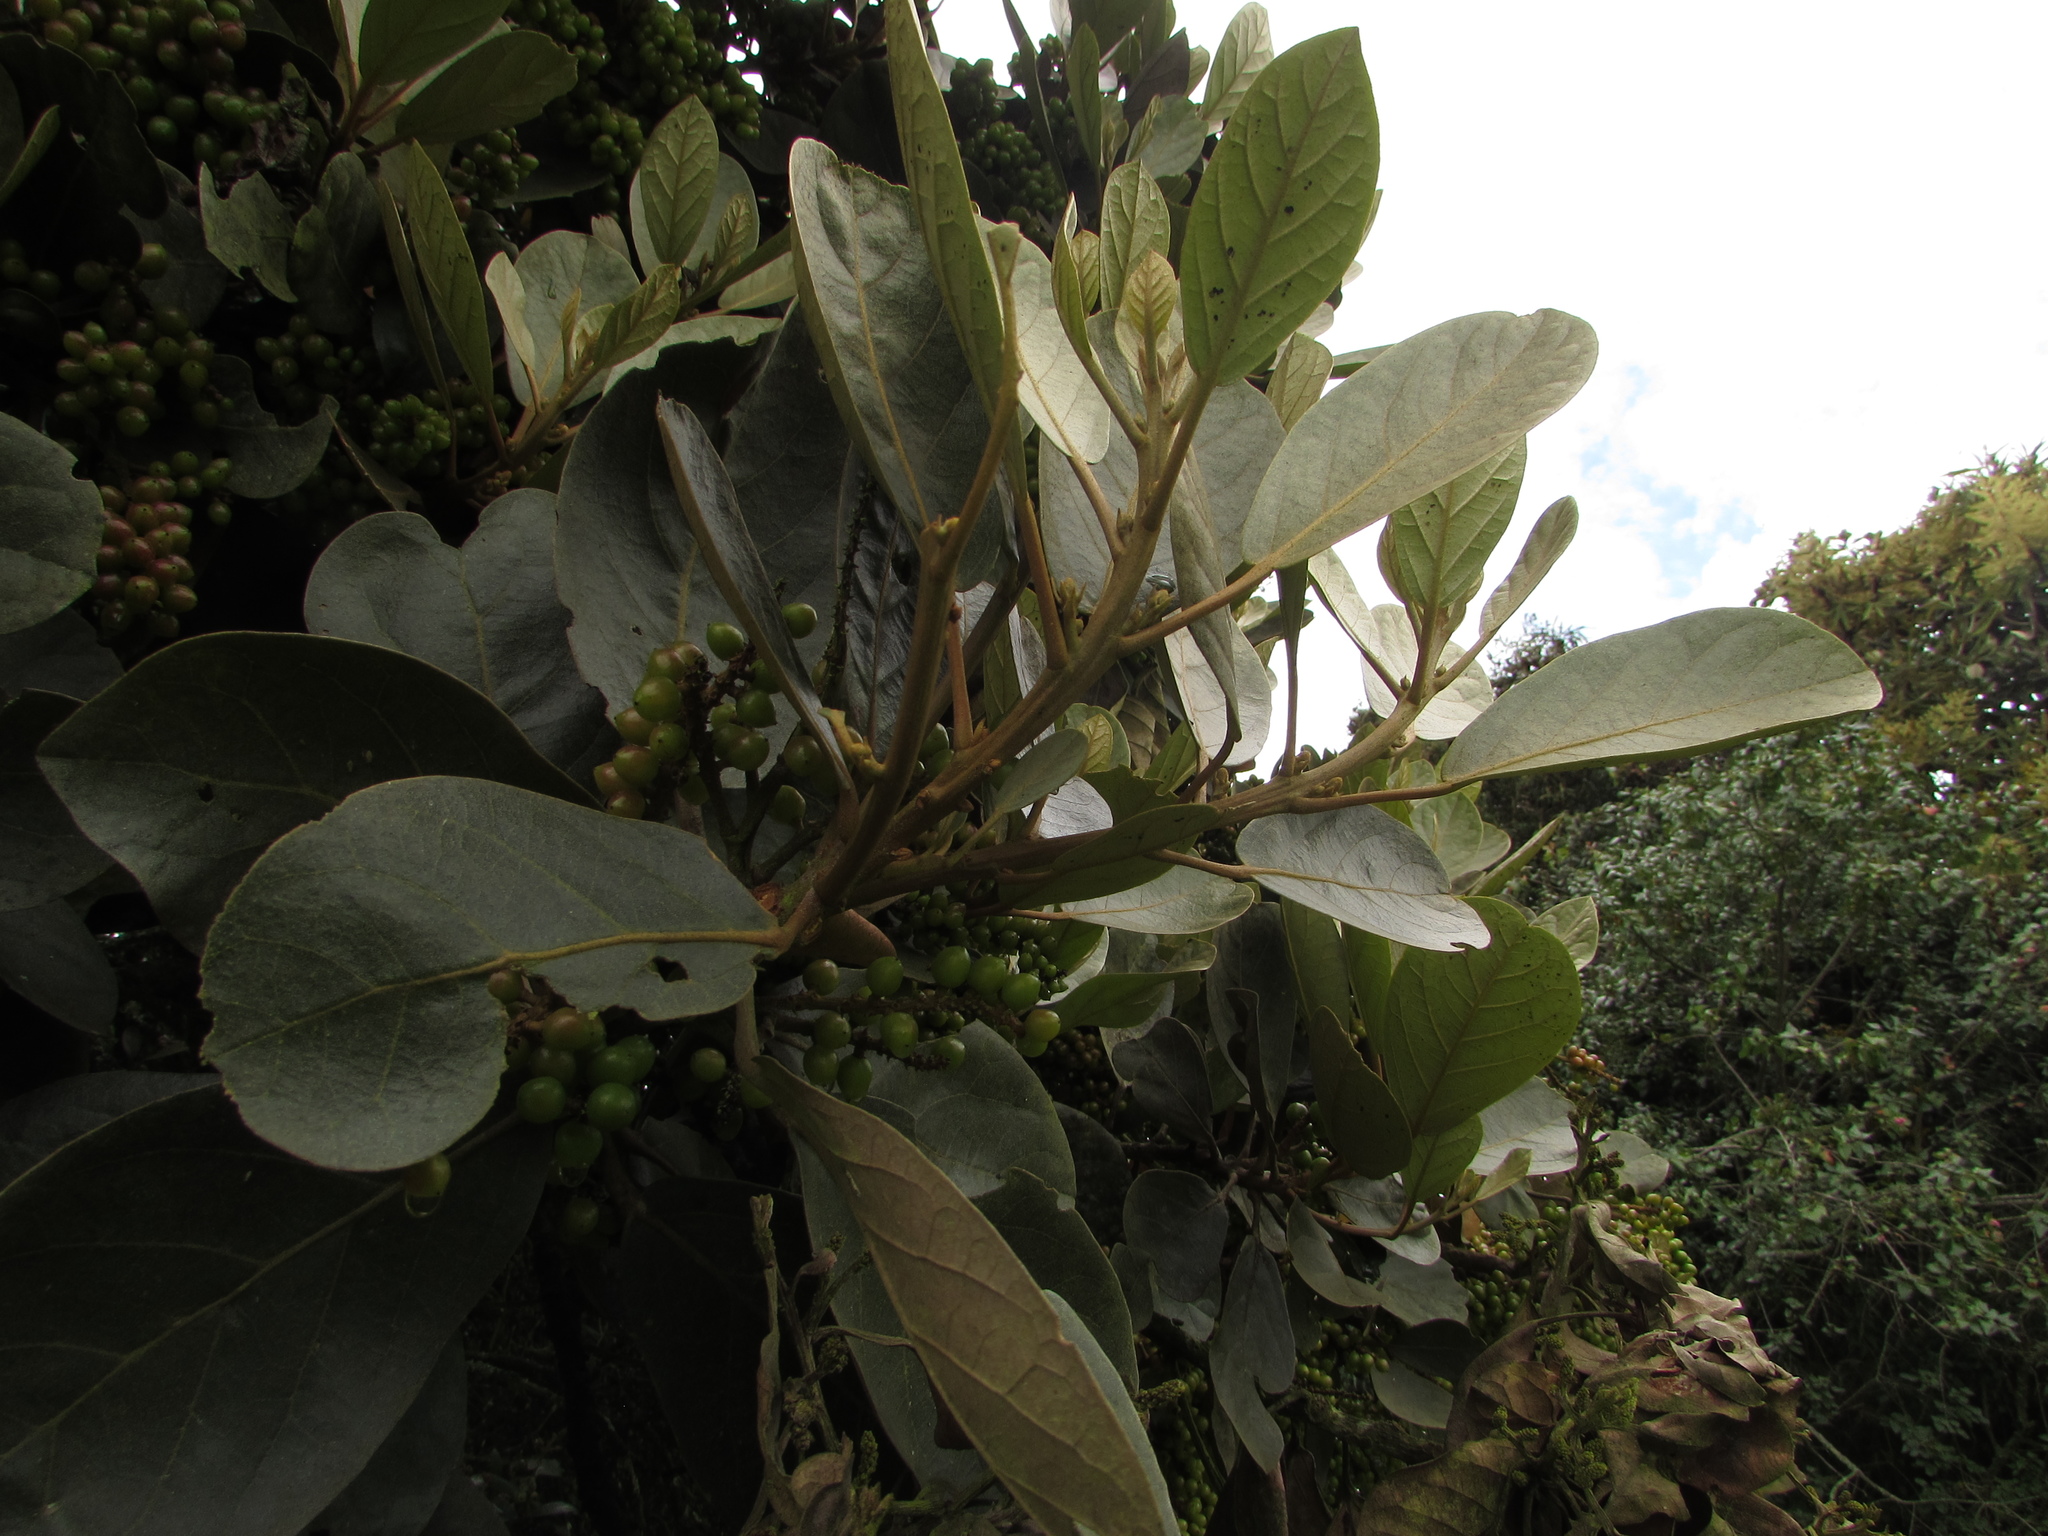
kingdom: Plantae
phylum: Tracheophyta
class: Magnoliopsida
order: Malpighiales
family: Phyllanthaceae
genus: Hieronyma
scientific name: Hieronyma rufa
